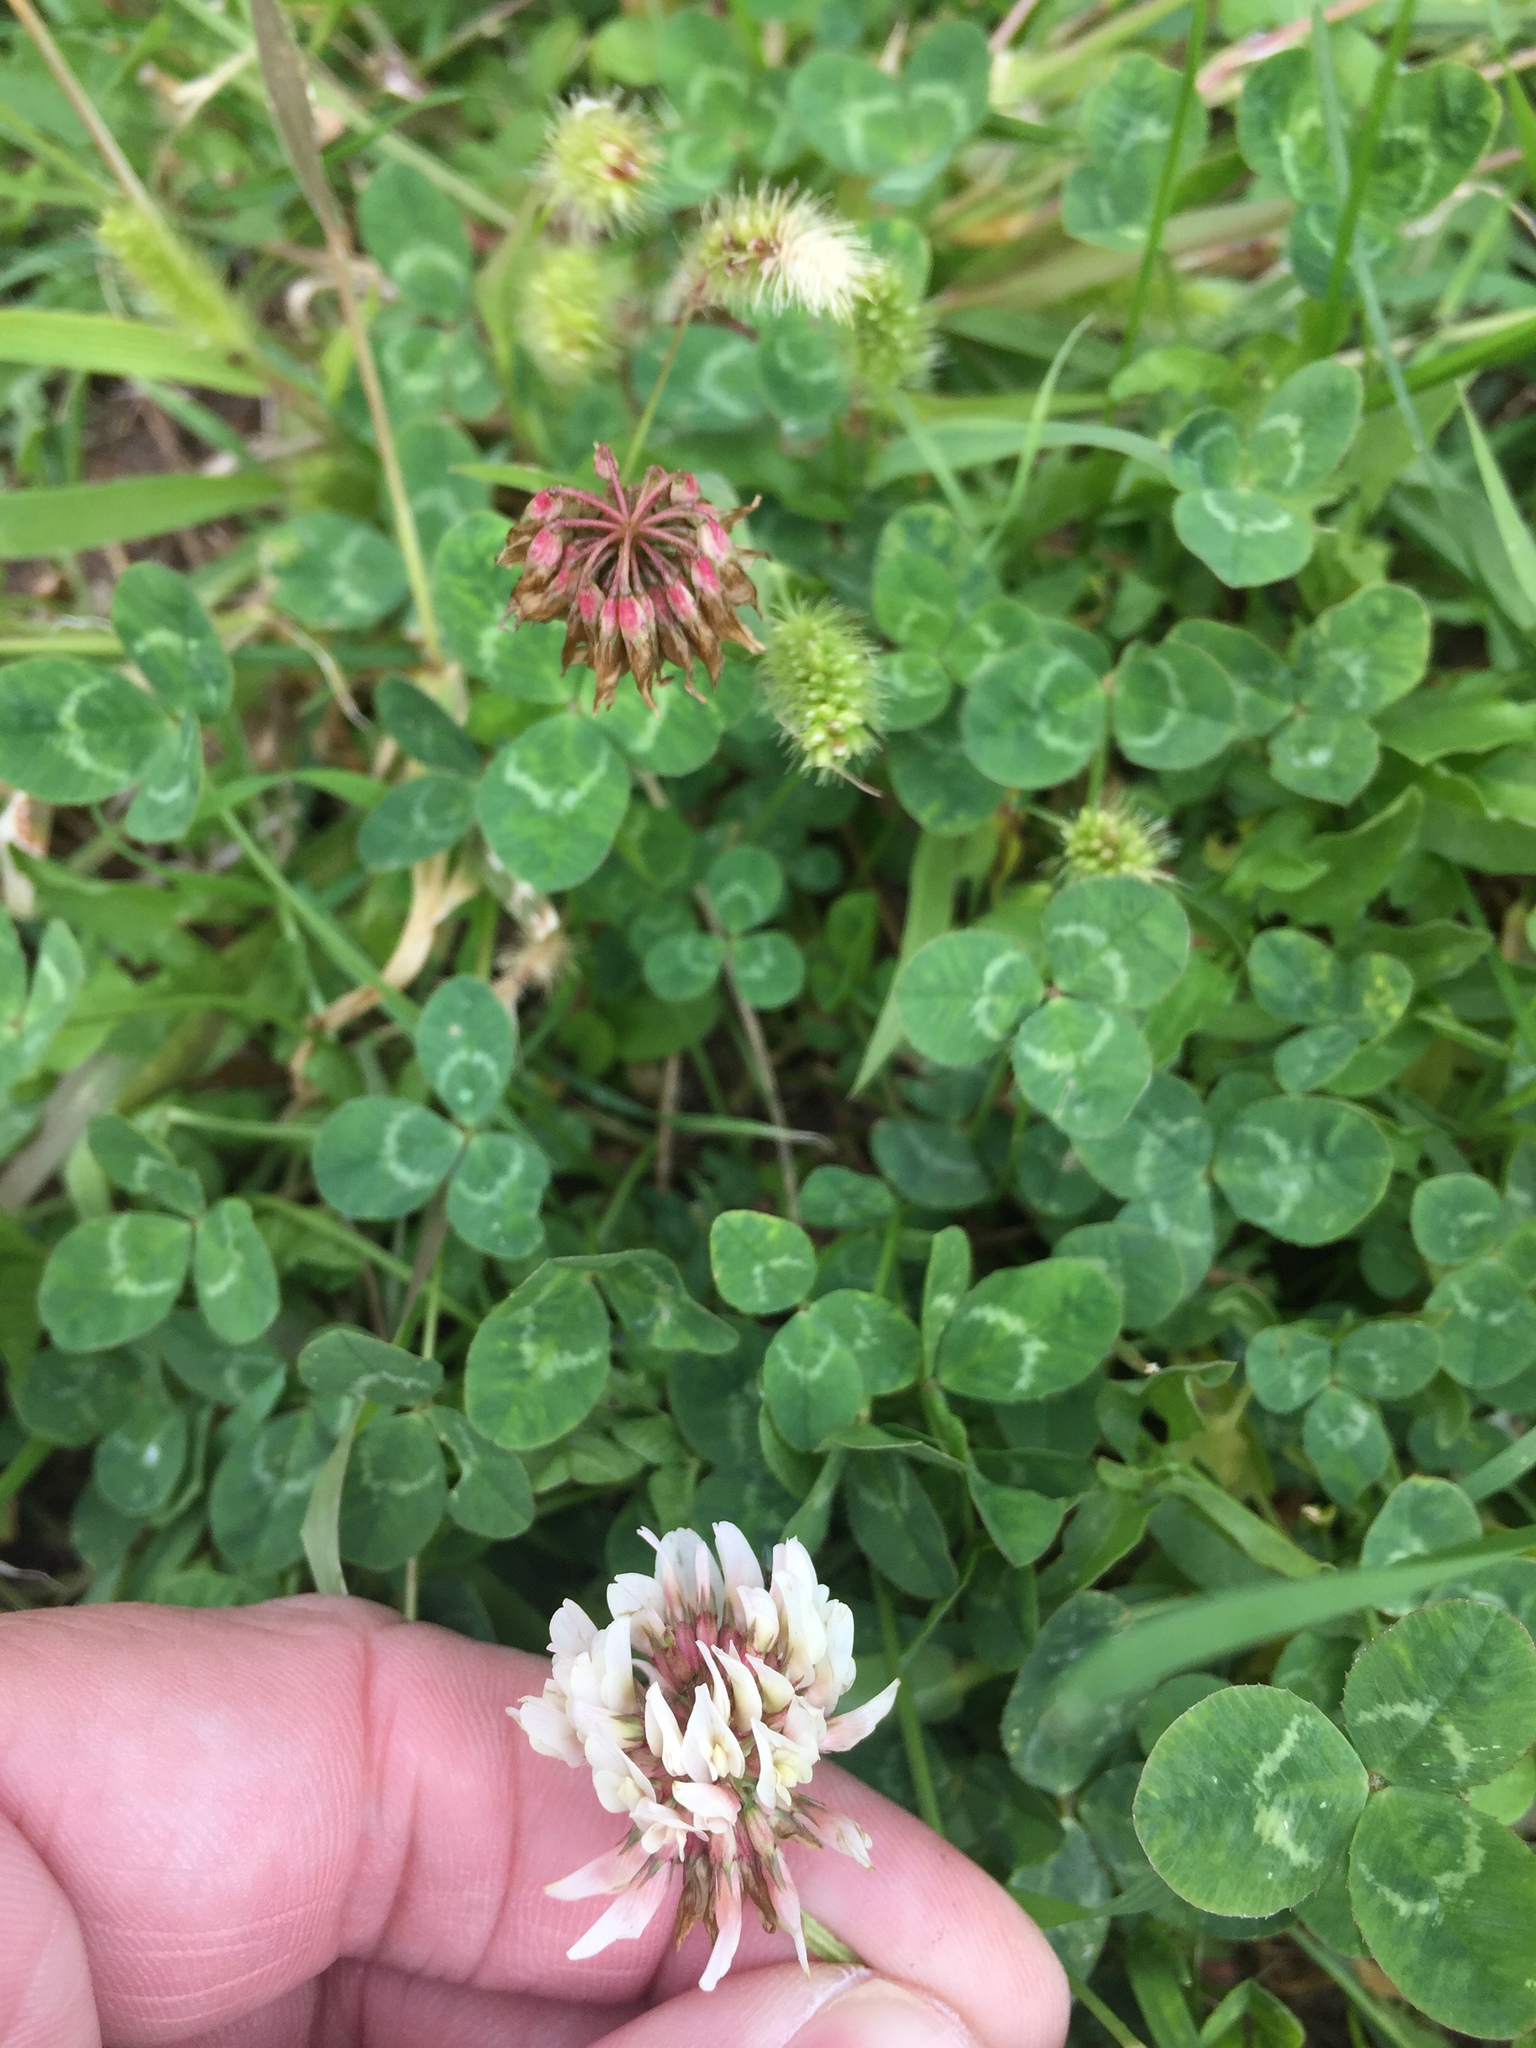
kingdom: Plantae
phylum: Tracheophyta
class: Magnoliopsida
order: Fabales
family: Fabaceae
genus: Trifolium
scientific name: Trifolium repens
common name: White clover
